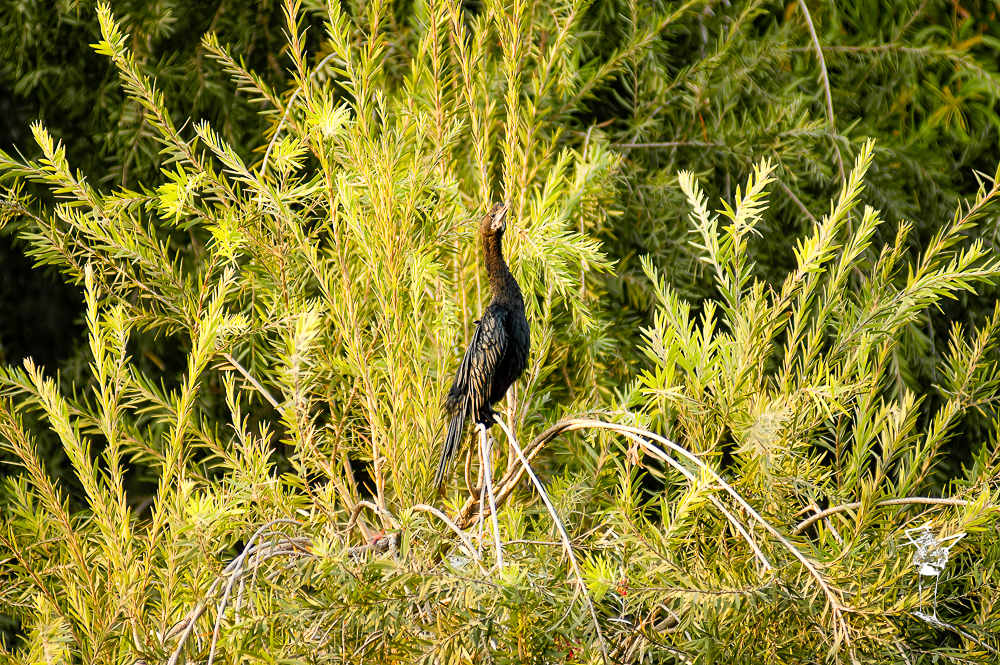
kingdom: Animalia
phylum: Chordata
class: Aves
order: Suliformes
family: Phalacrocoracidae
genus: Microcarbo
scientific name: Microcarbo niger
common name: Little cormorant
